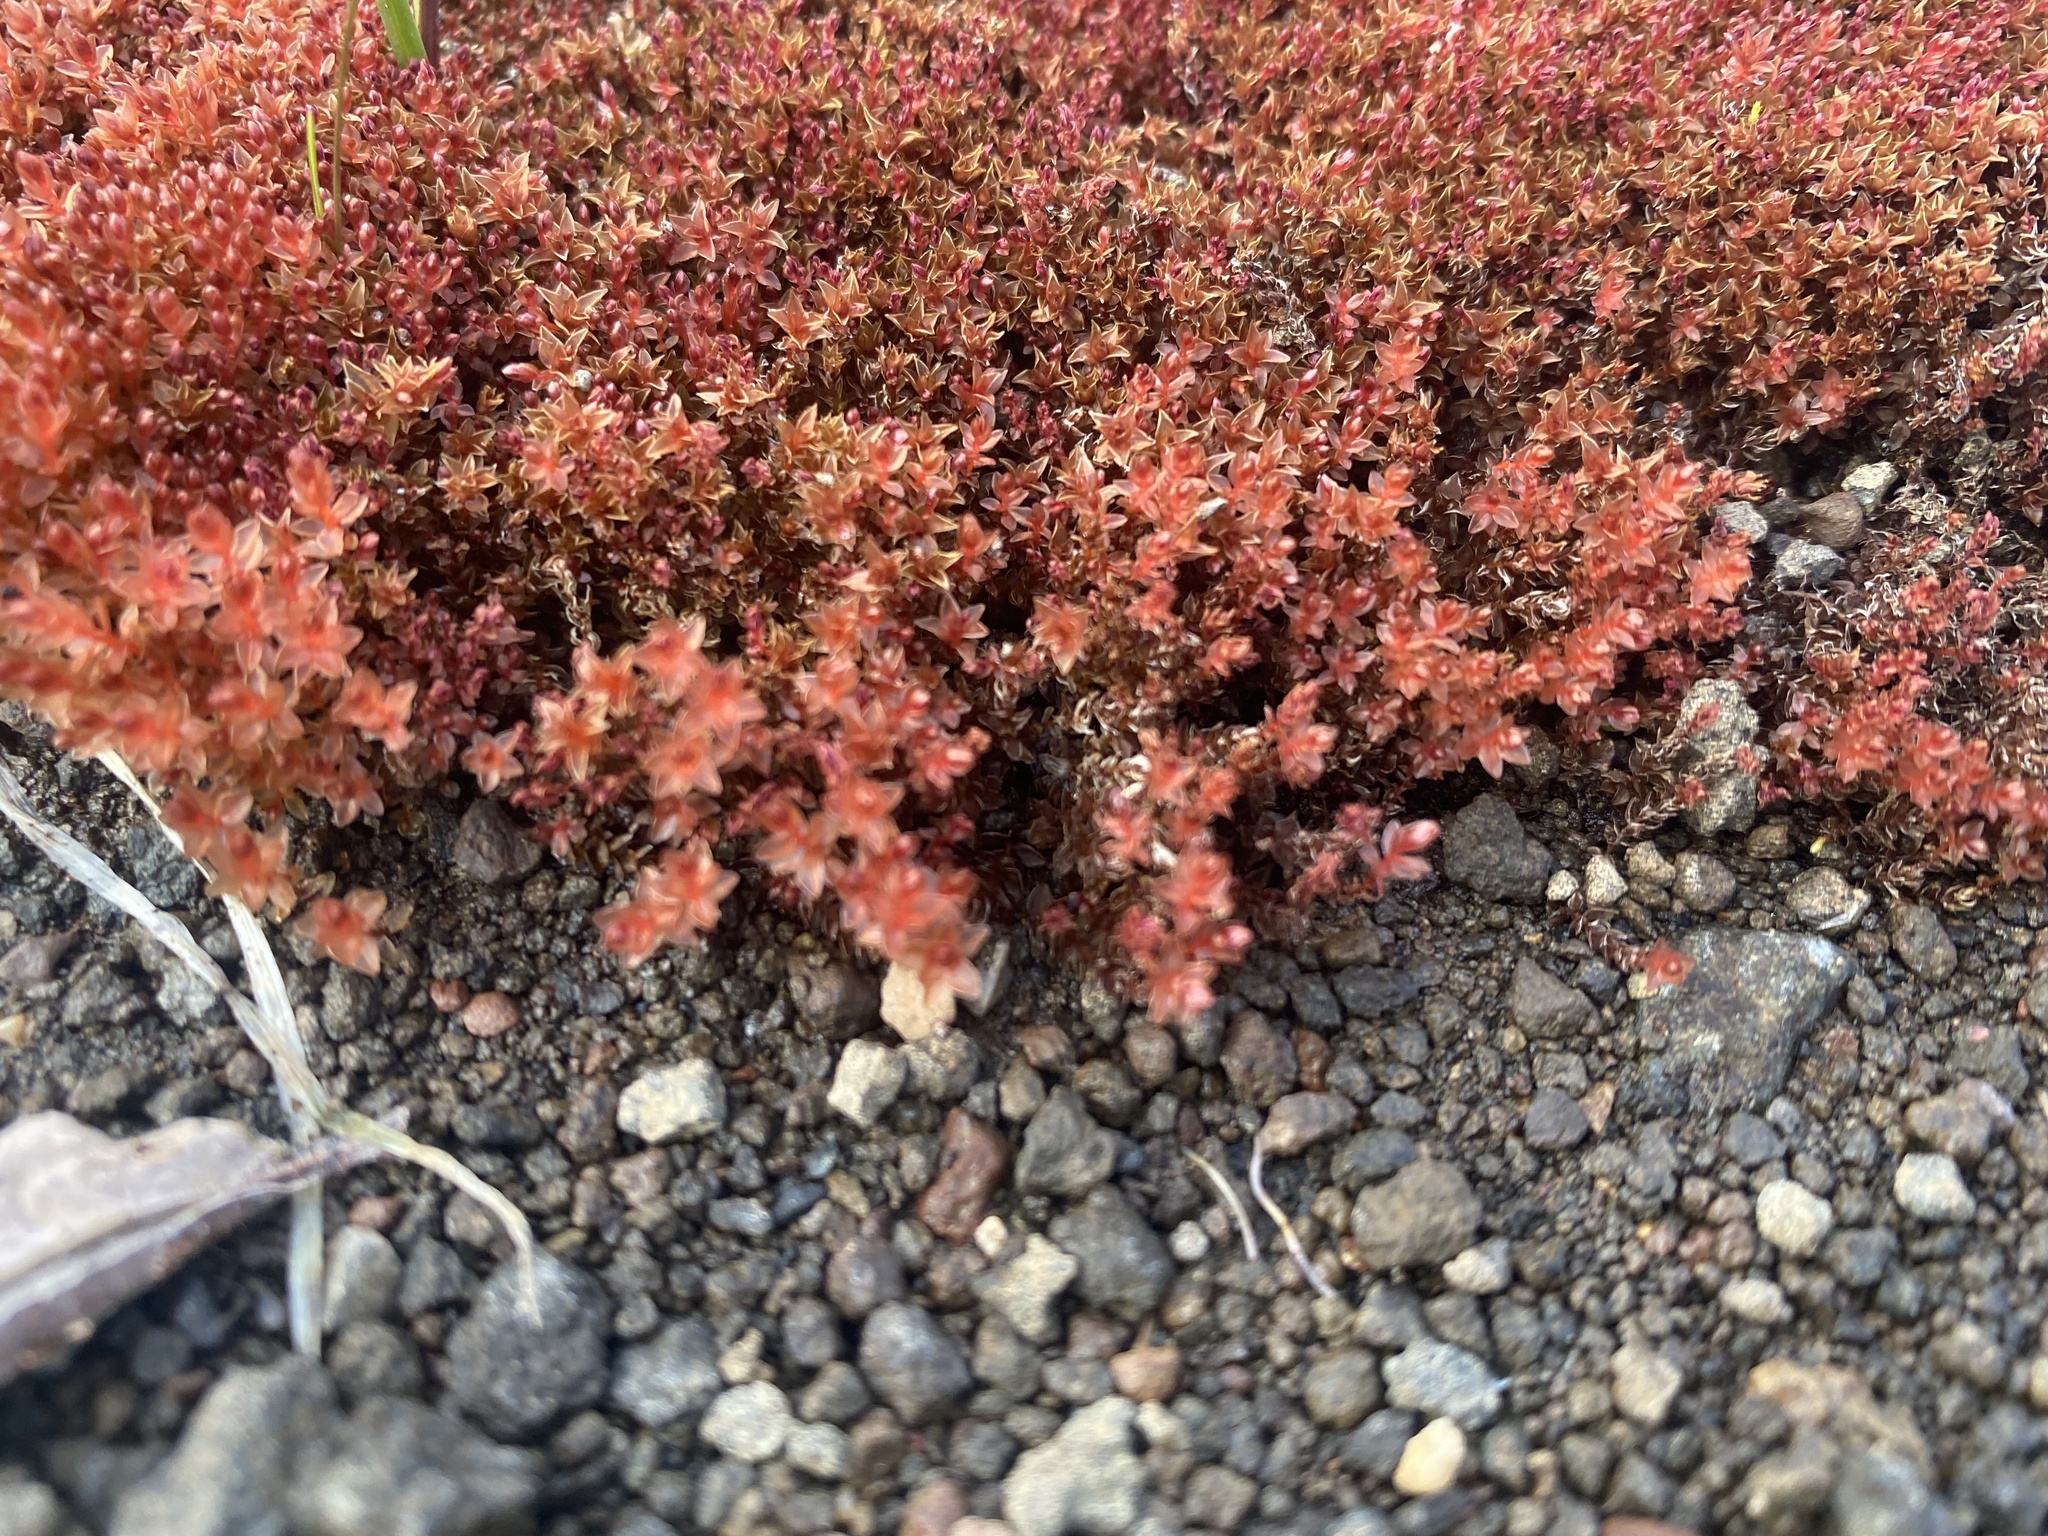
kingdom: Plantae
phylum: Bryophyta
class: Bryopsida
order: Bryales
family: Bryaceae
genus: Ptychostomum
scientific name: Ptychostomum cryophilum
